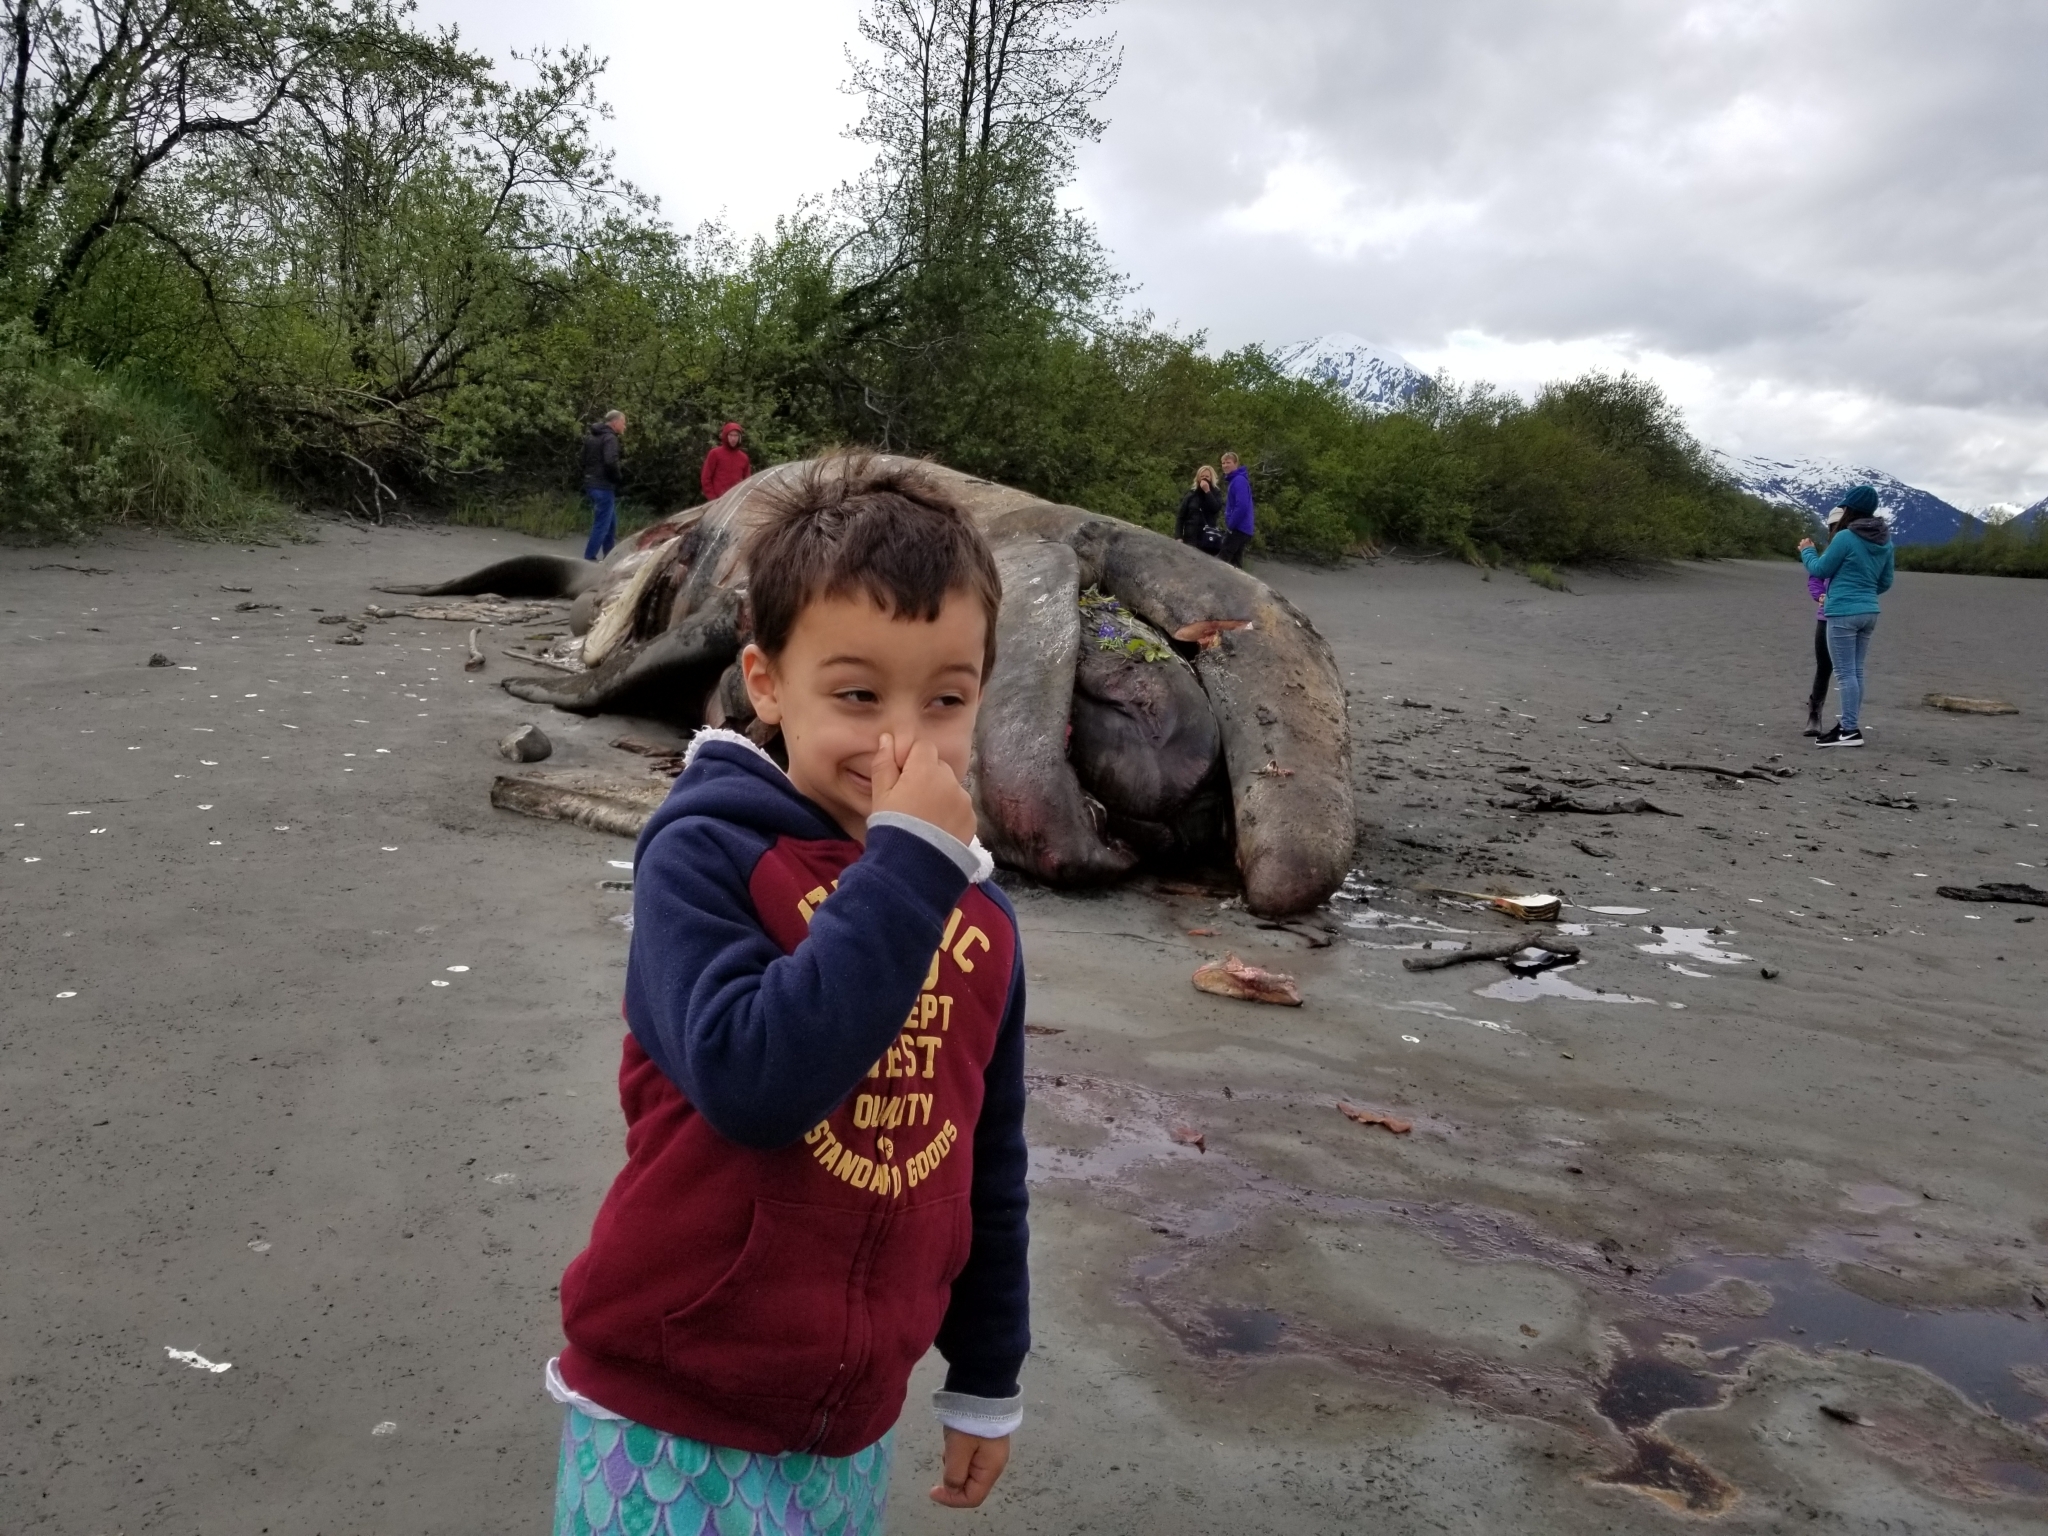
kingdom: Animalia
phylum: Chordata
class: Mammalia
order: Cetacea
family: Eschrichtiidae
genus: Eschrichtius
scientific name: Eschrichtius robustus
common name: Gray whale
